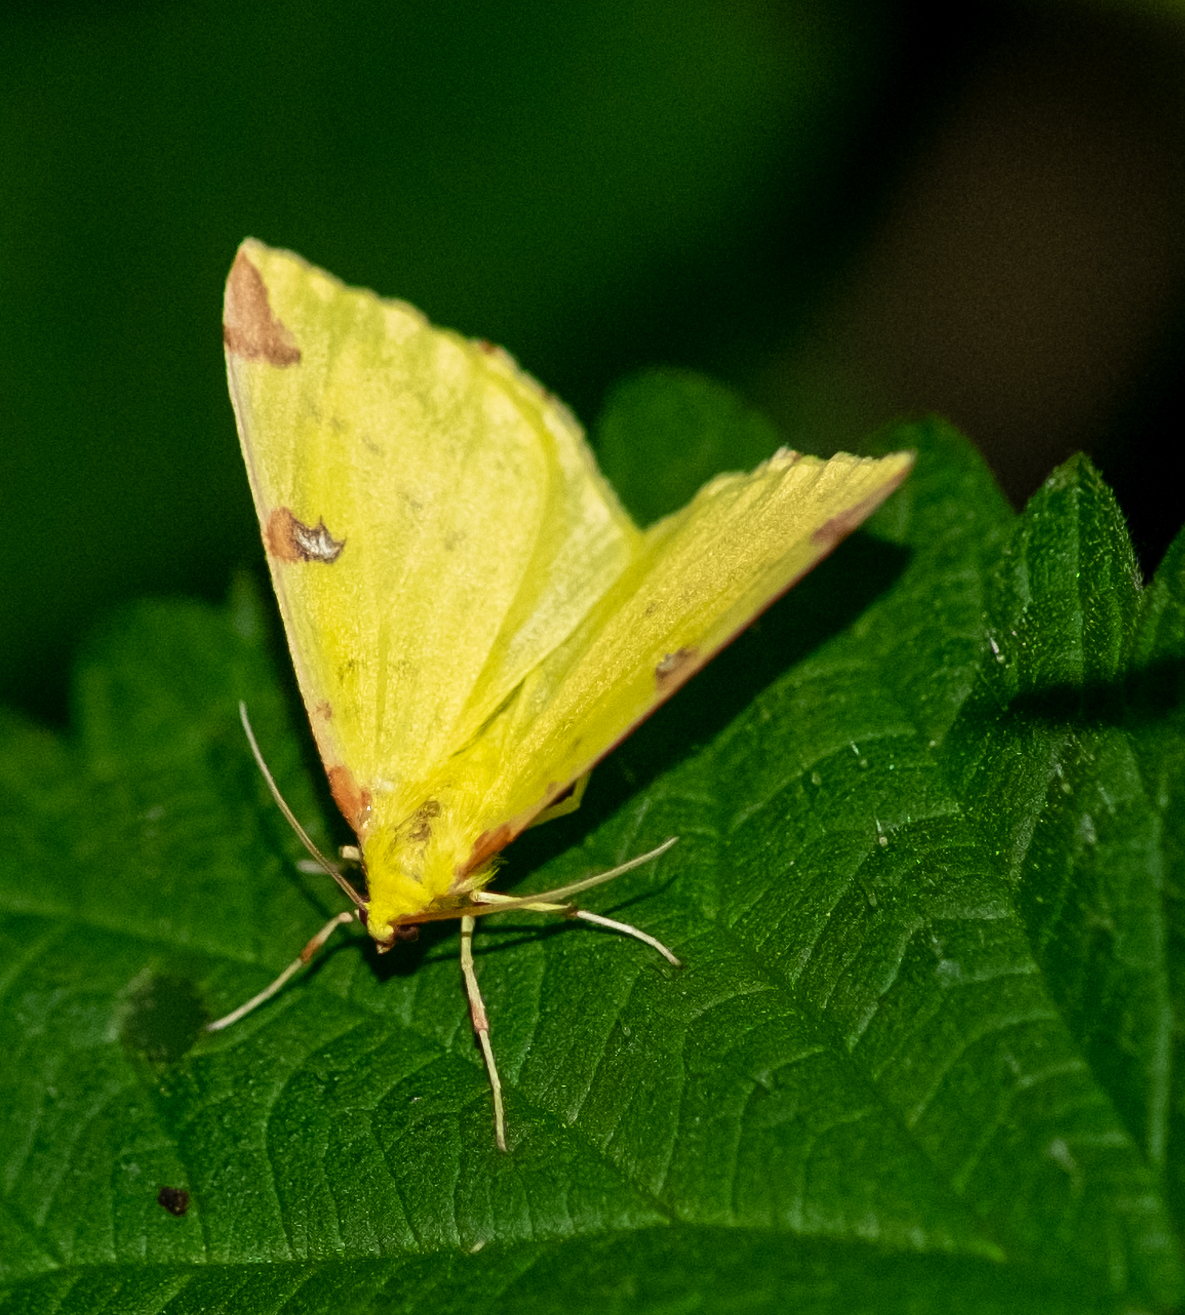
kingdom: Animalia
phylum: Arthropoda
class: Insecta
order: Lepidoptera
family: Geometridae
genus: Opisthograptis
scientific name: Opisthograptis luteolata
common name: Brimstone moth
